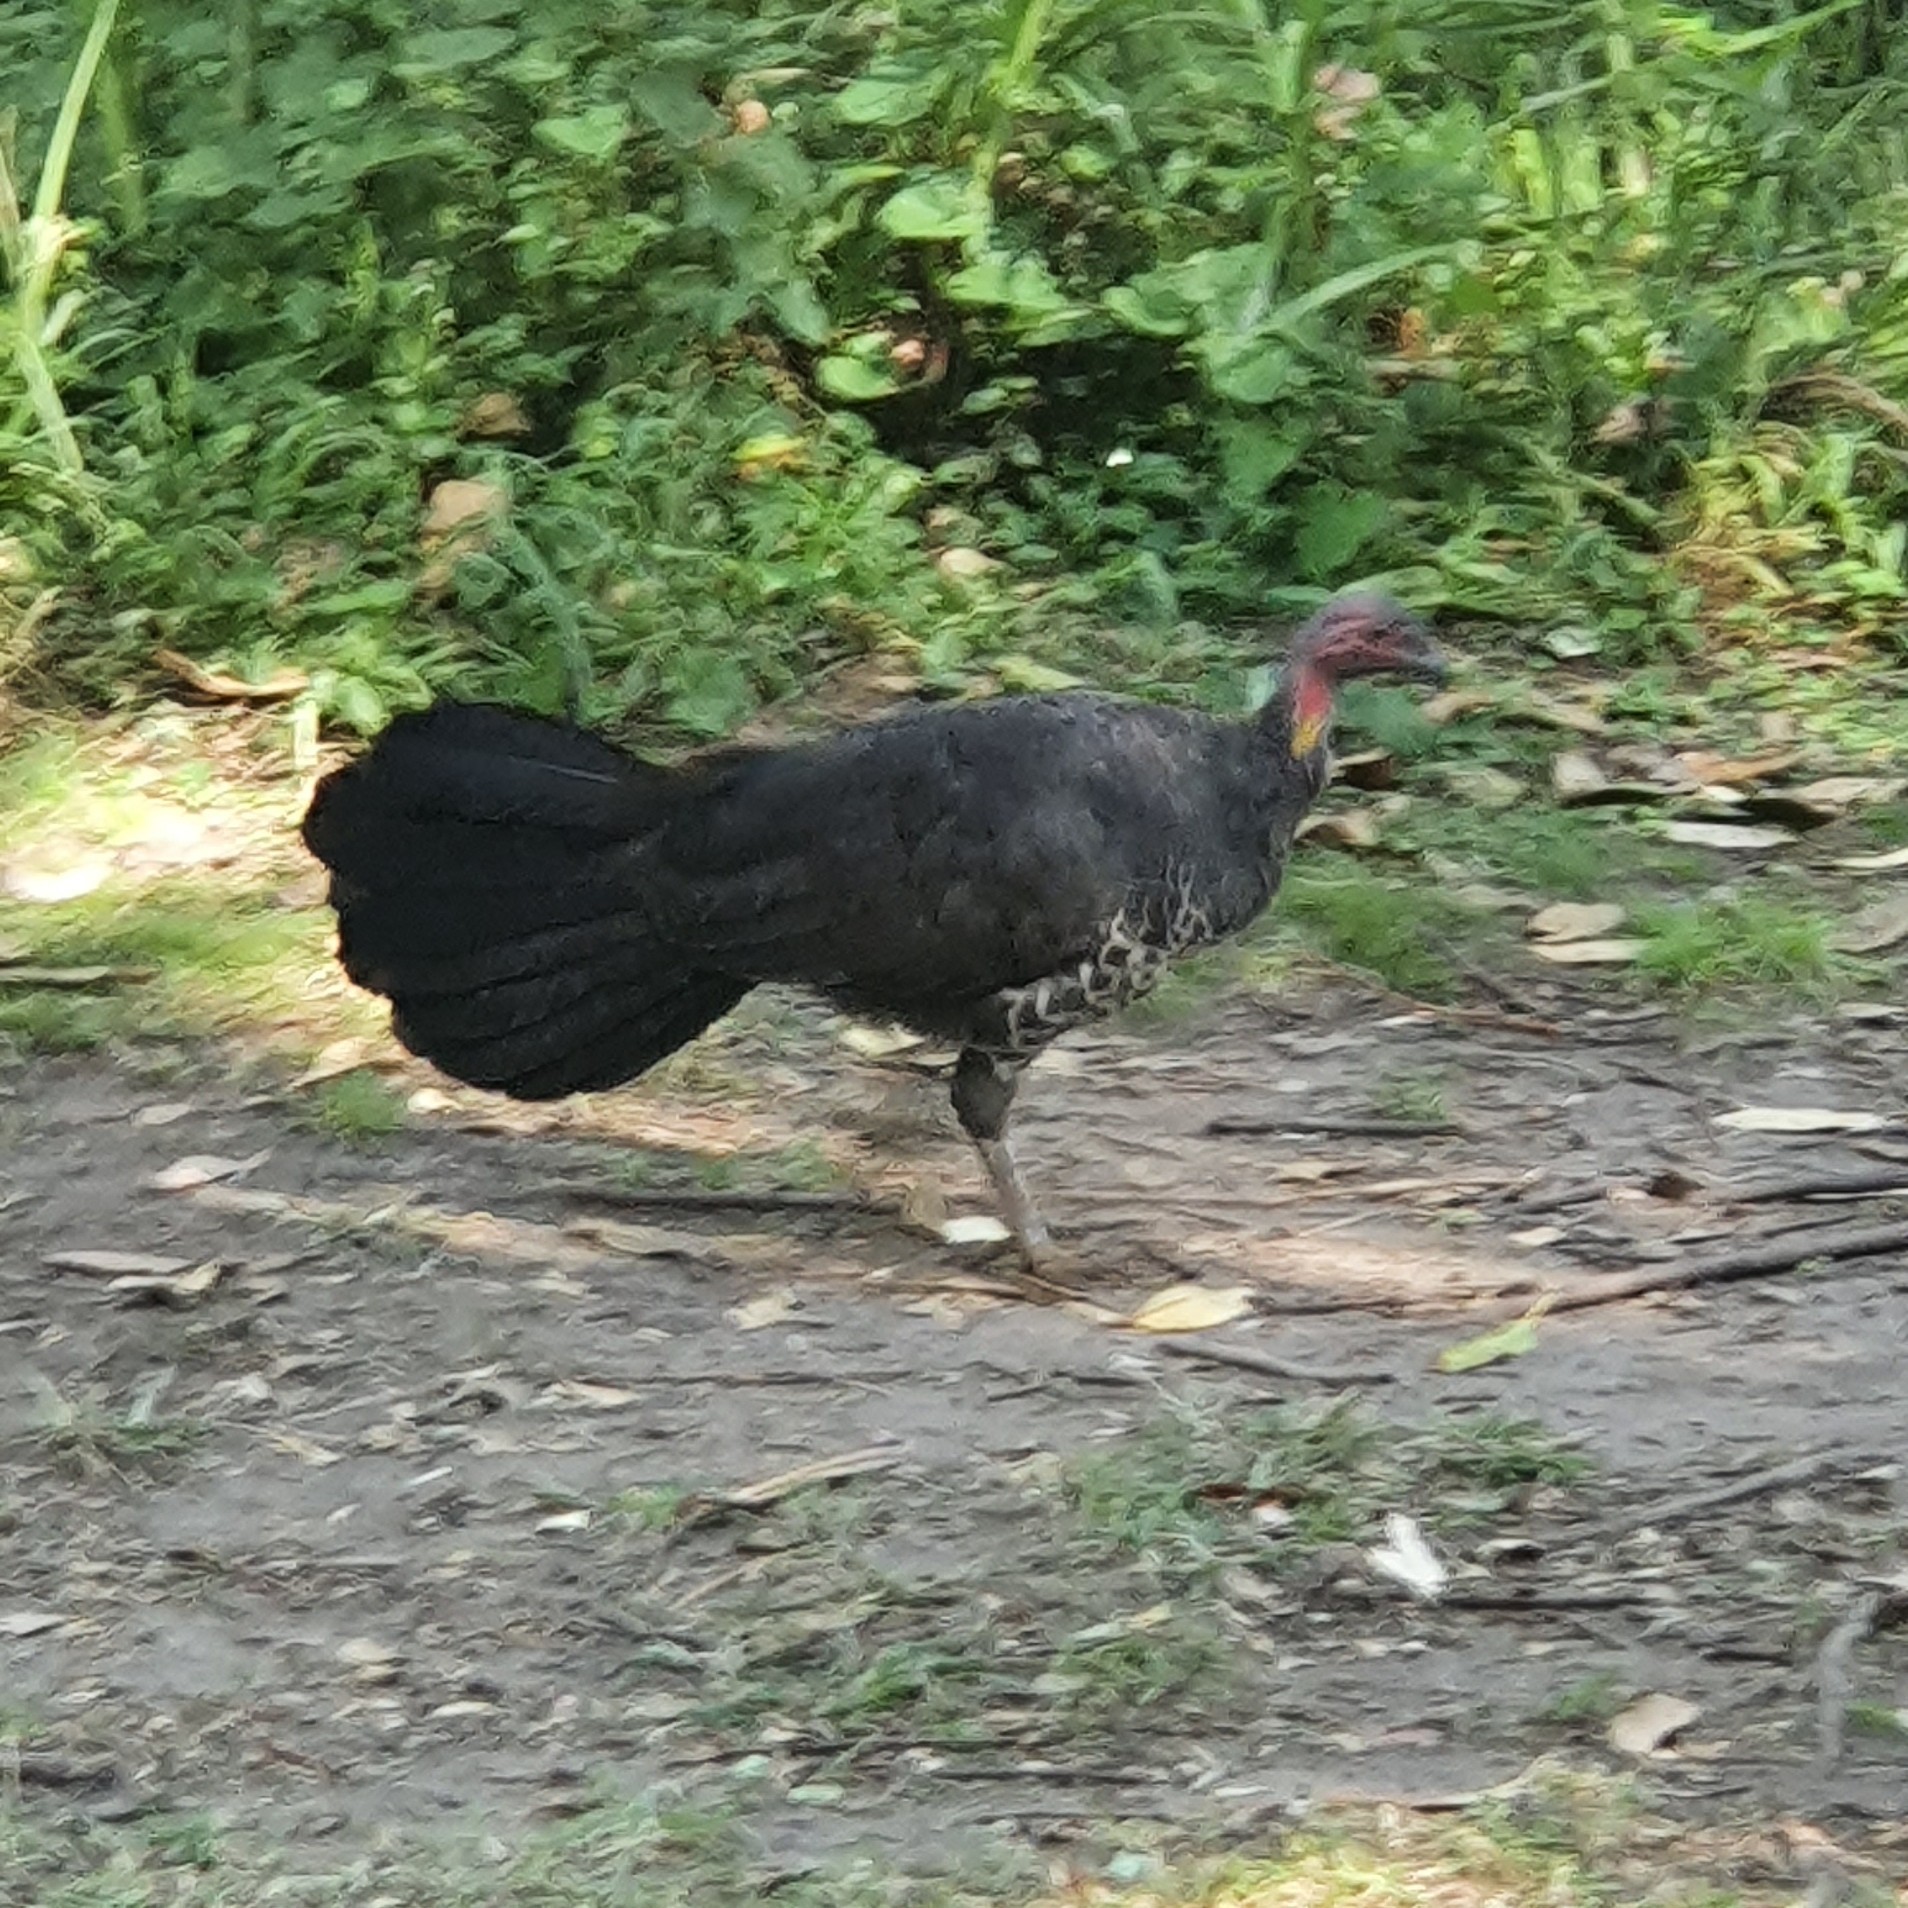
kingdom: Animalia
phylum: Chordata
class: Aves
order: Galliformes
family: Megapodiidae
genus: Alectura
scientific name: Alectura lathami
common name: Australian brushturkey
